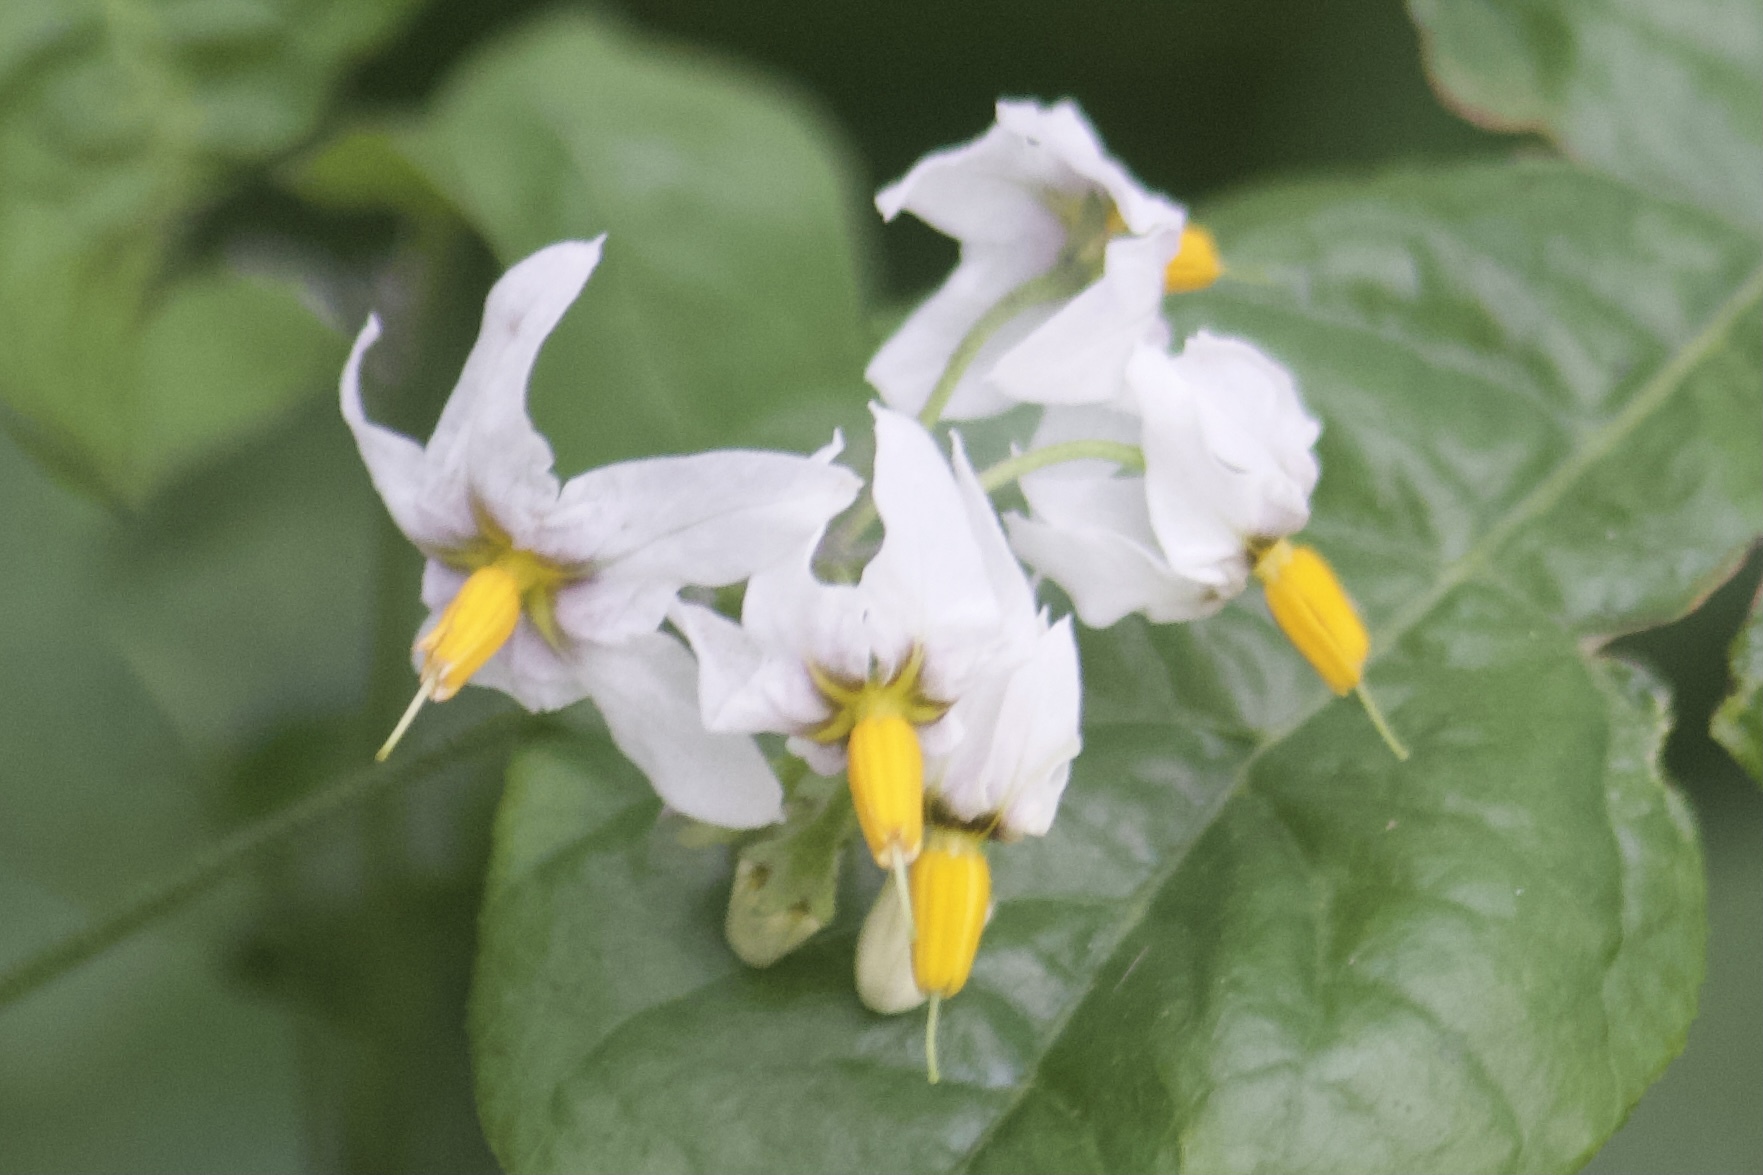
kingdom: Plantae
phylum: Tracheophyta
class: Magnoliopsida
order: Solanales
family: Solanaceae
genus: Solanum
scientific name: Solanum douglasii
